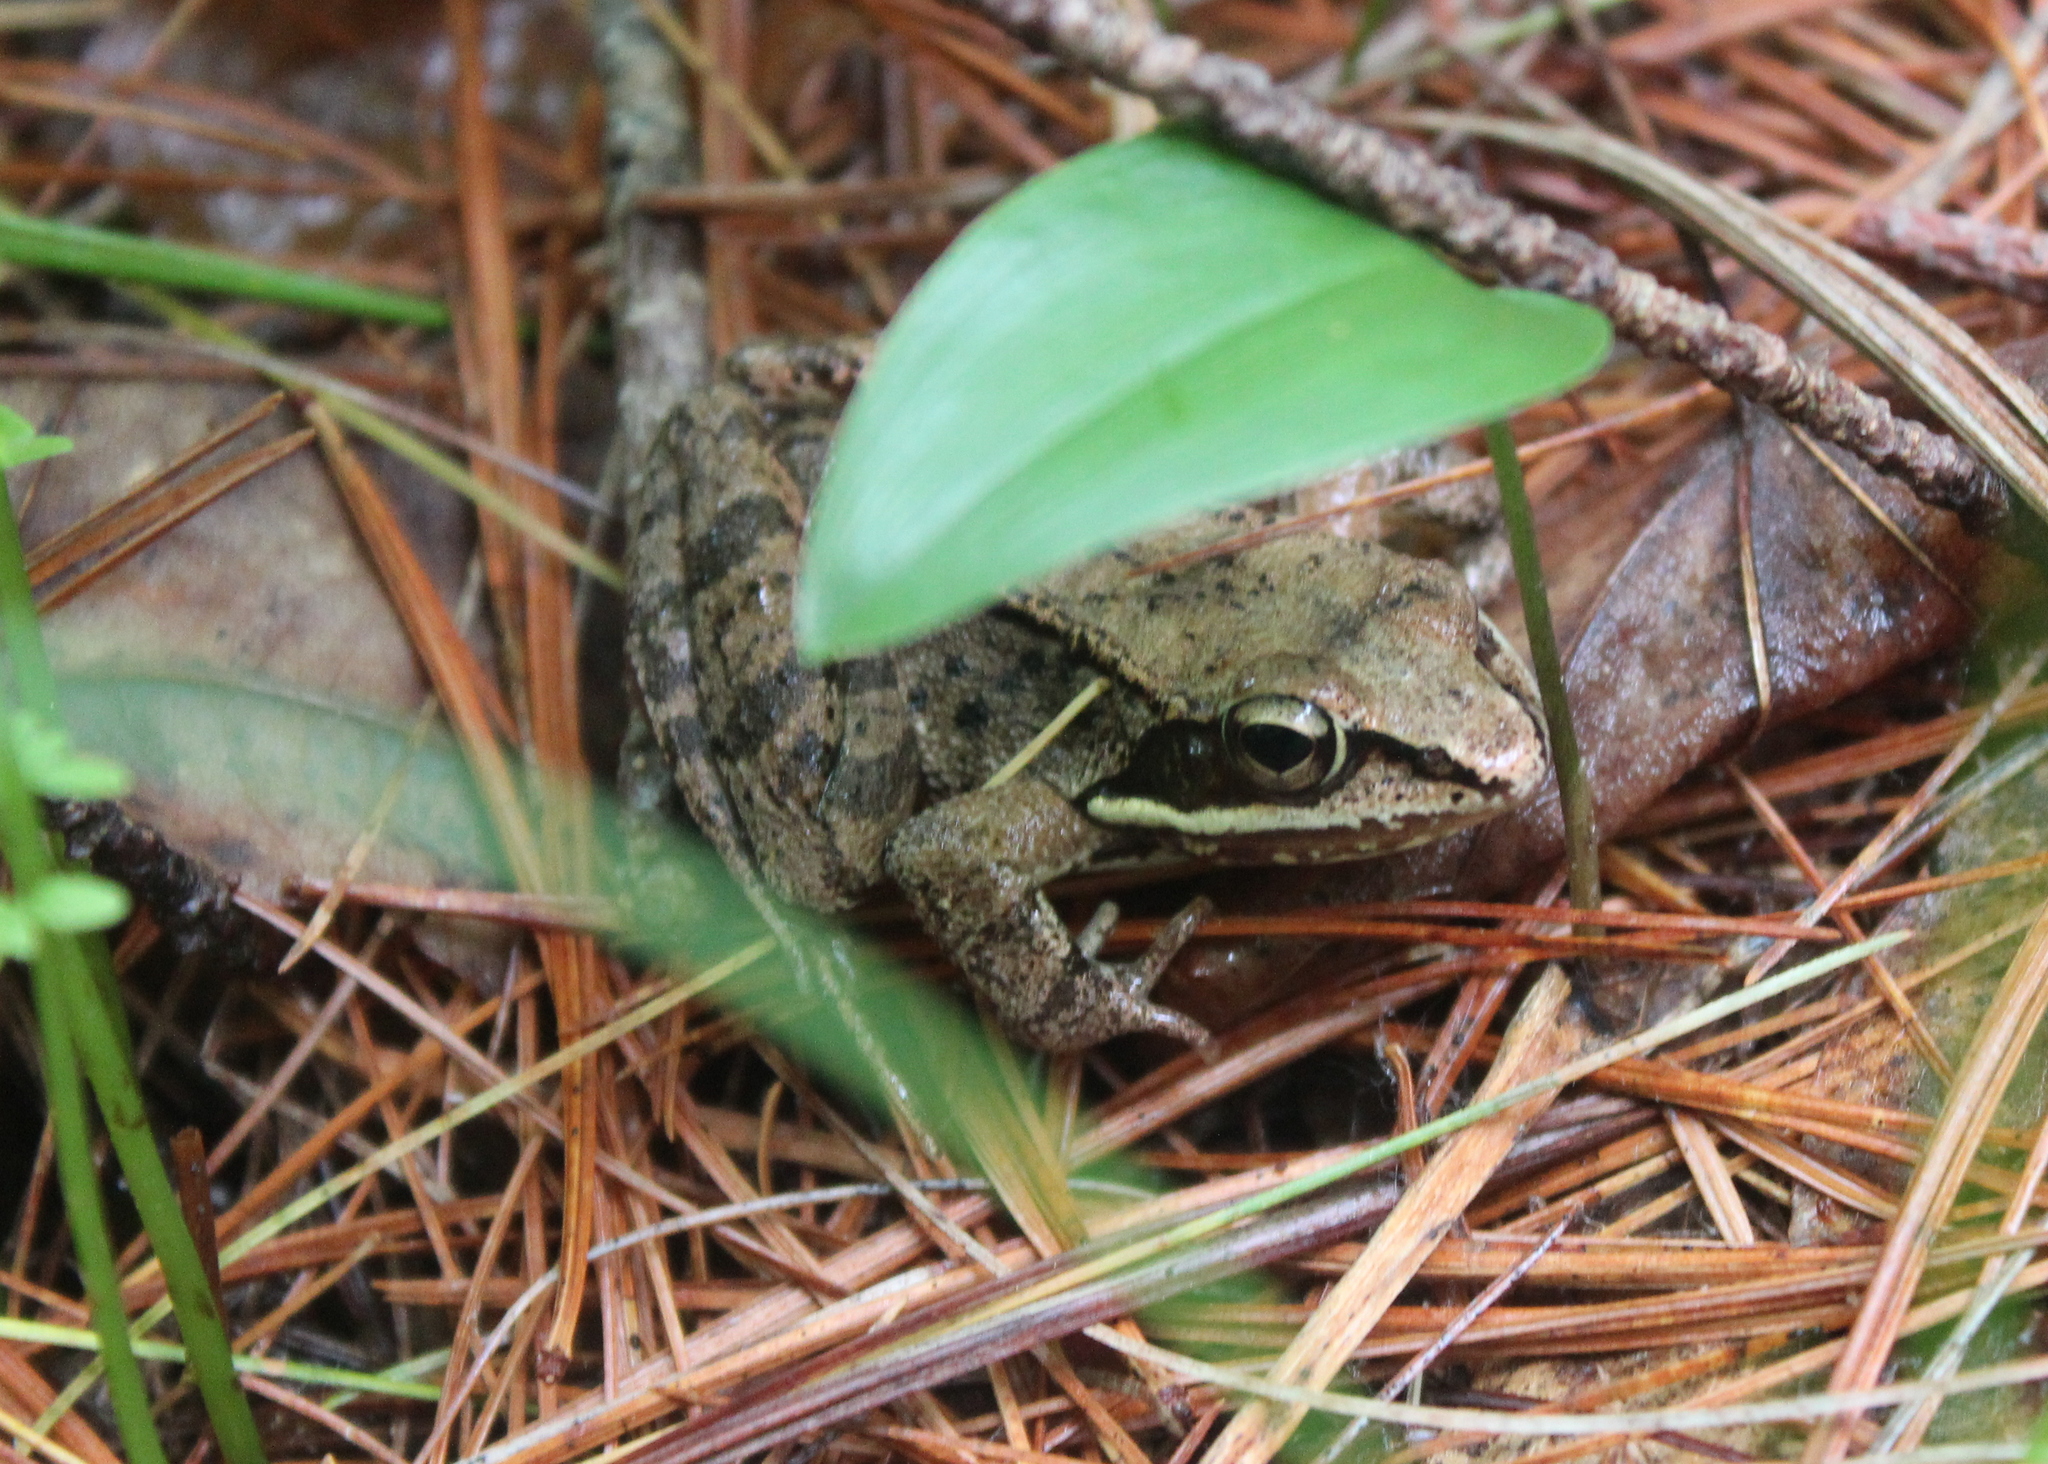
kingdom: Animalia
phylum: Chordata
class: Amphibia
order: Anura
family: Ranidae
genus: Lithobates
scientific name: Lithobates sylvaticus
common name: Wood frog
